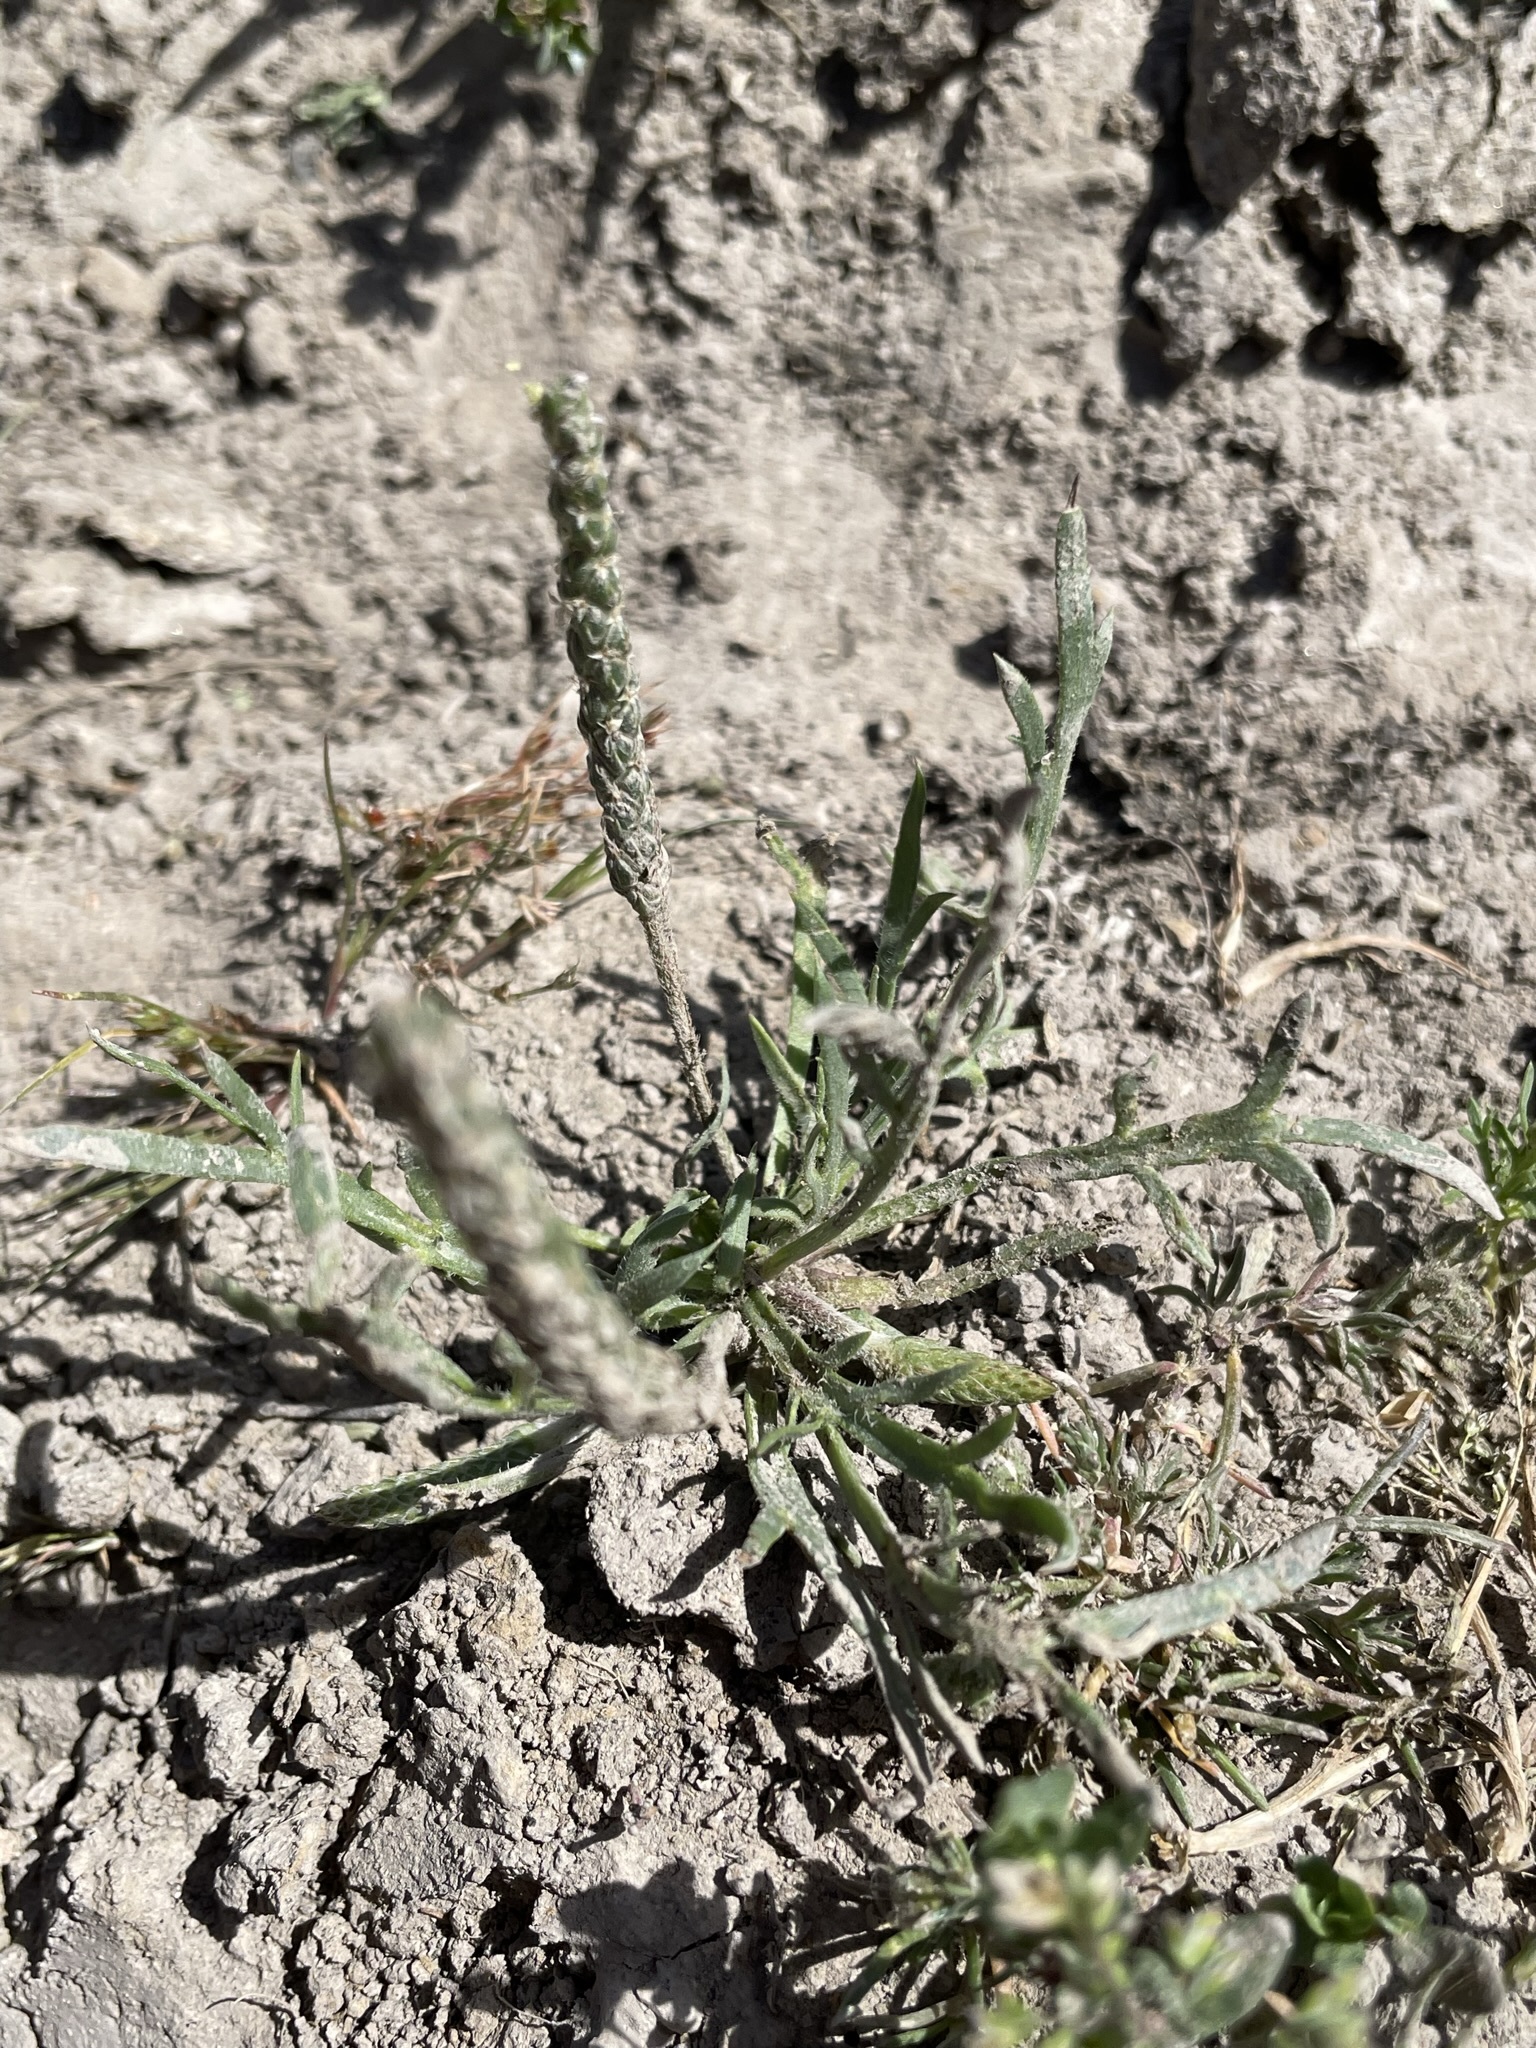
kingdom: Plantae
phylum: Tracheophyta
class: Magnoliopsida
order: Lamiales
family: Plantaginaceae
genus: Plantago
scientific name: Plantago coronopus
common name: Buck's-horn plantain
